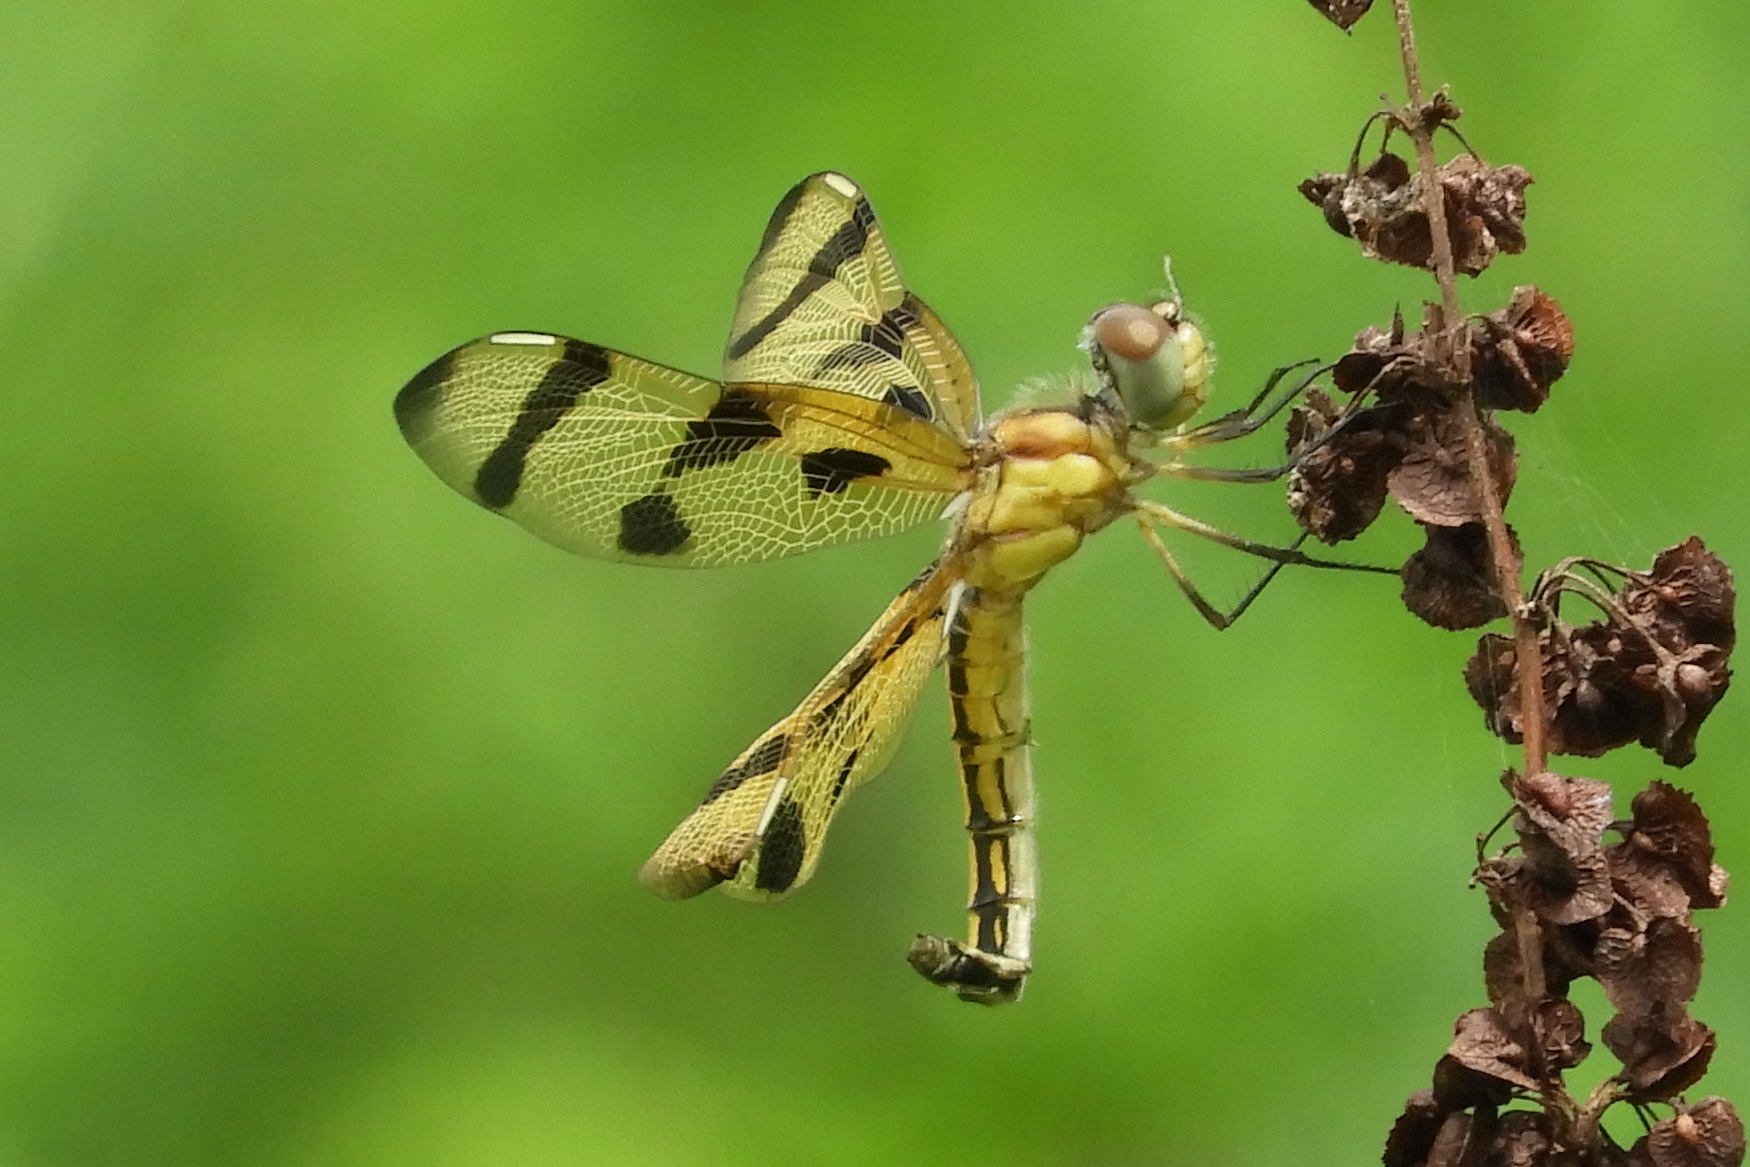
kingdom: Animalia
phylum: Arthropoda
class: Insecta
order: Odonata
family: Libellulidae
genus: Celithemis
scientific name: Celithemis eponina
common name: Halloween pennant
